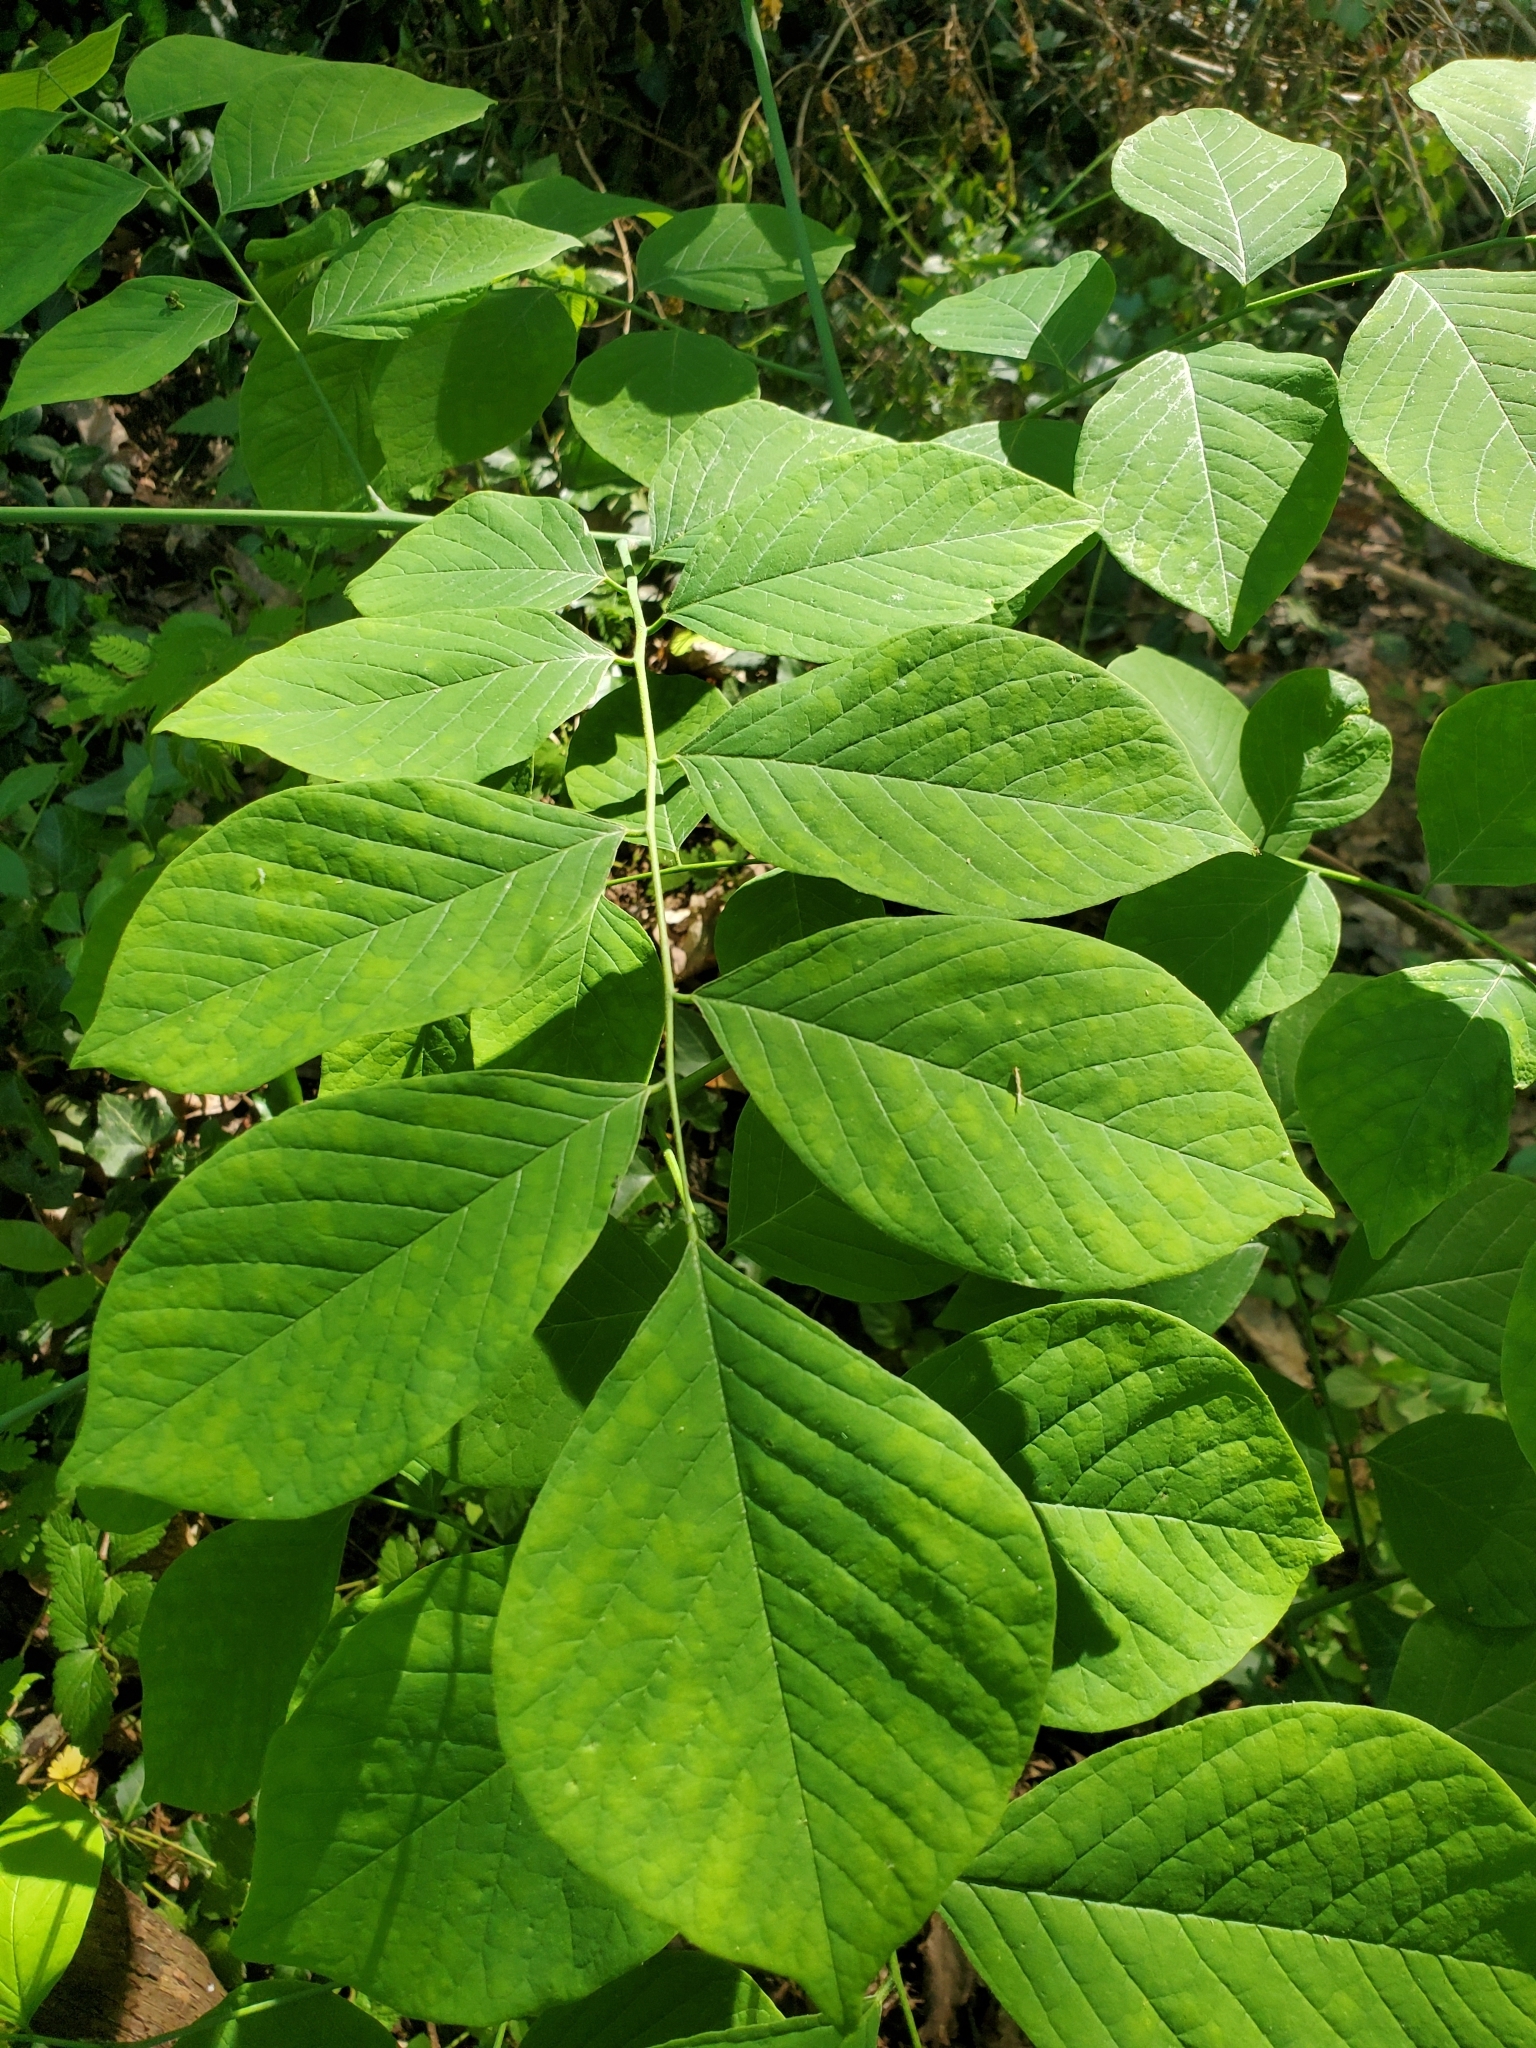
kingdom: Plantae
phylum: Tracheophyta
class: Magnoliopsida
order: Fabales
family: Fabaceae
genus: Cladrastis
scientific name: Cladrastis kentukea
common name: Kentucky yellow-wood
